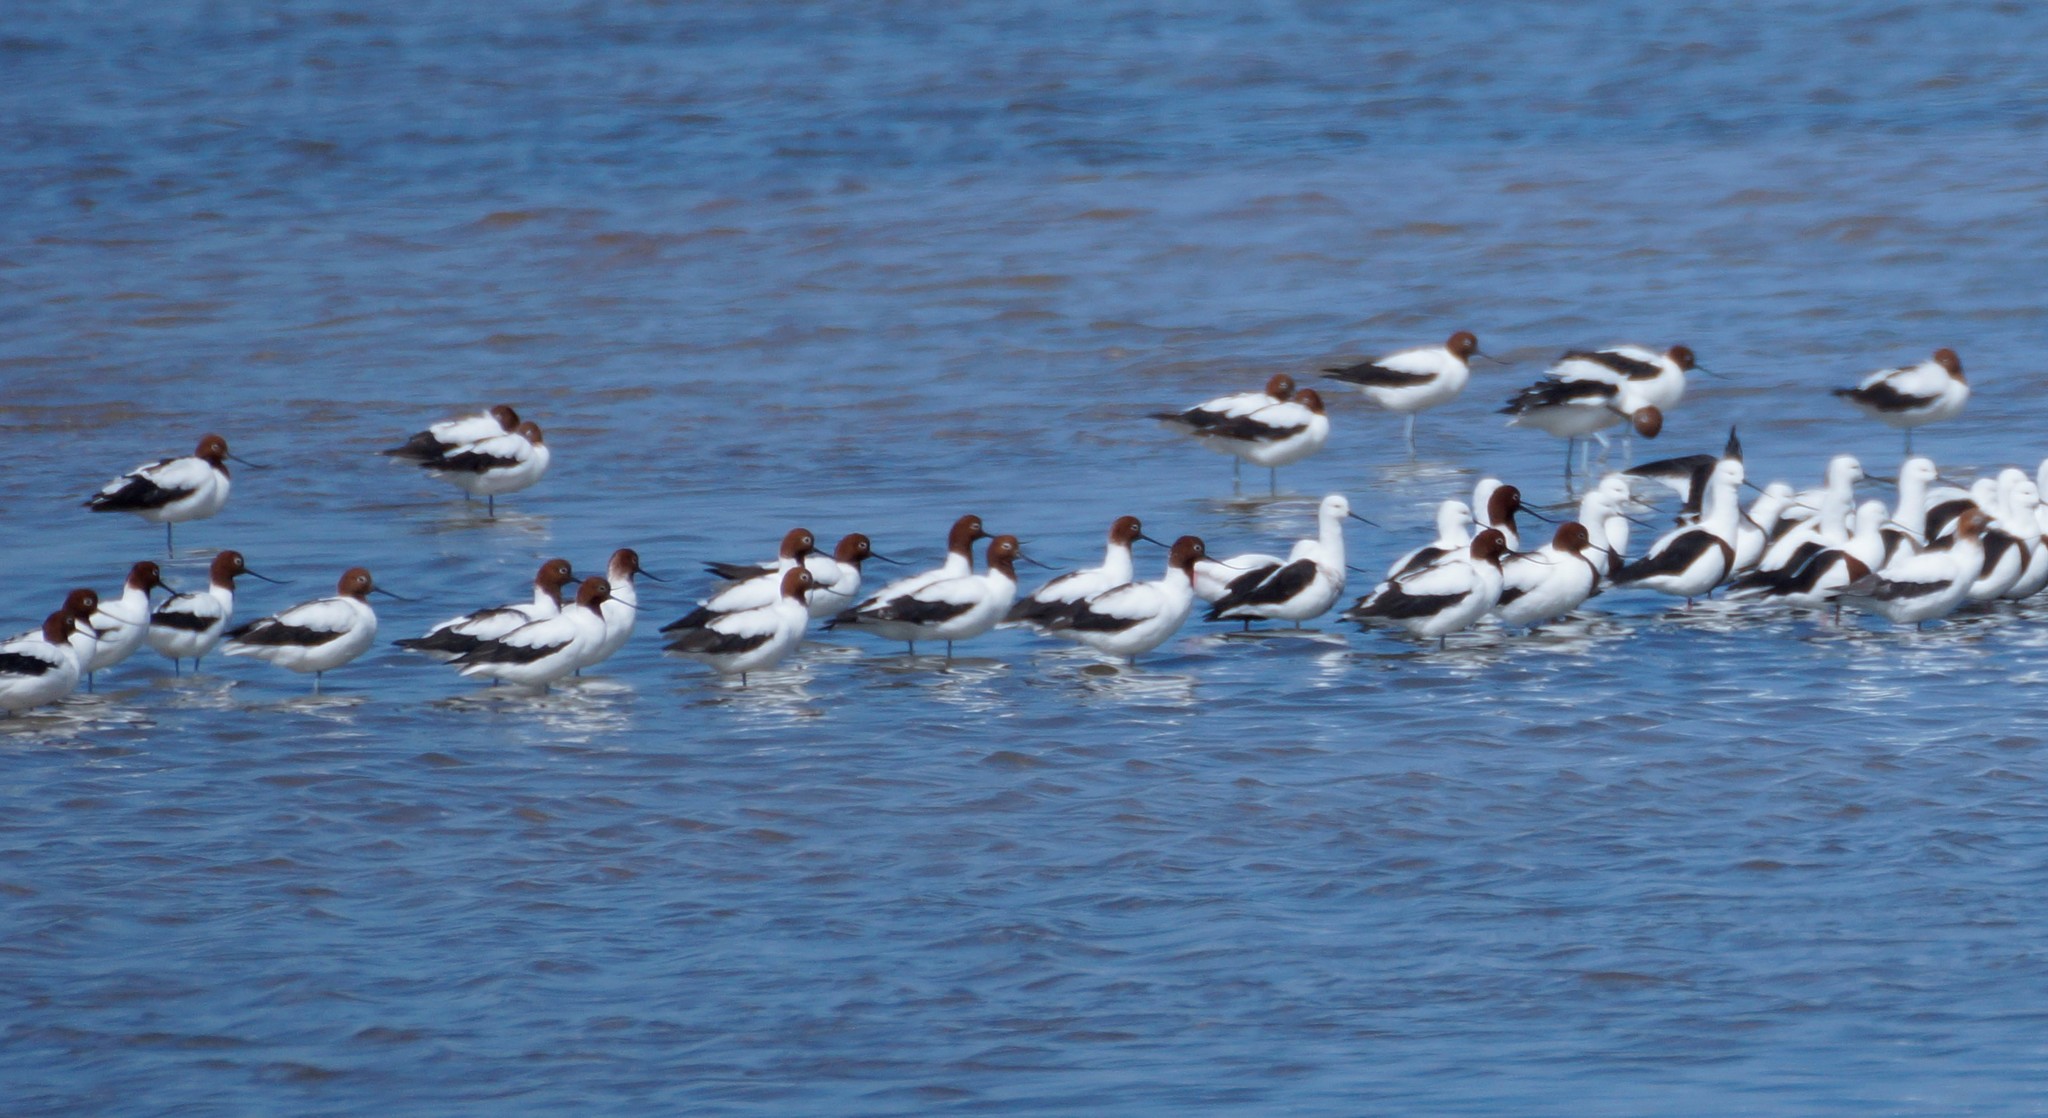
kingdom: Animalia
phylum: Chordata
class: Aves
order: Charadriiformes
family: Recurvirostridae
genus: Recurvirostra
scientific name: Recurvirostra novaehollandiae
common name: Red-necked avocet
